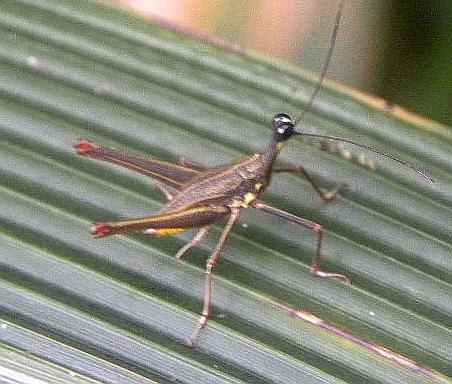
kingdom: Animalia
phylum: Arthropoda
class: Insecta
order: Orthoptera
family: Tetrigidae
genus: Ophiotettix
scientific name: Ophiotettix limosina
